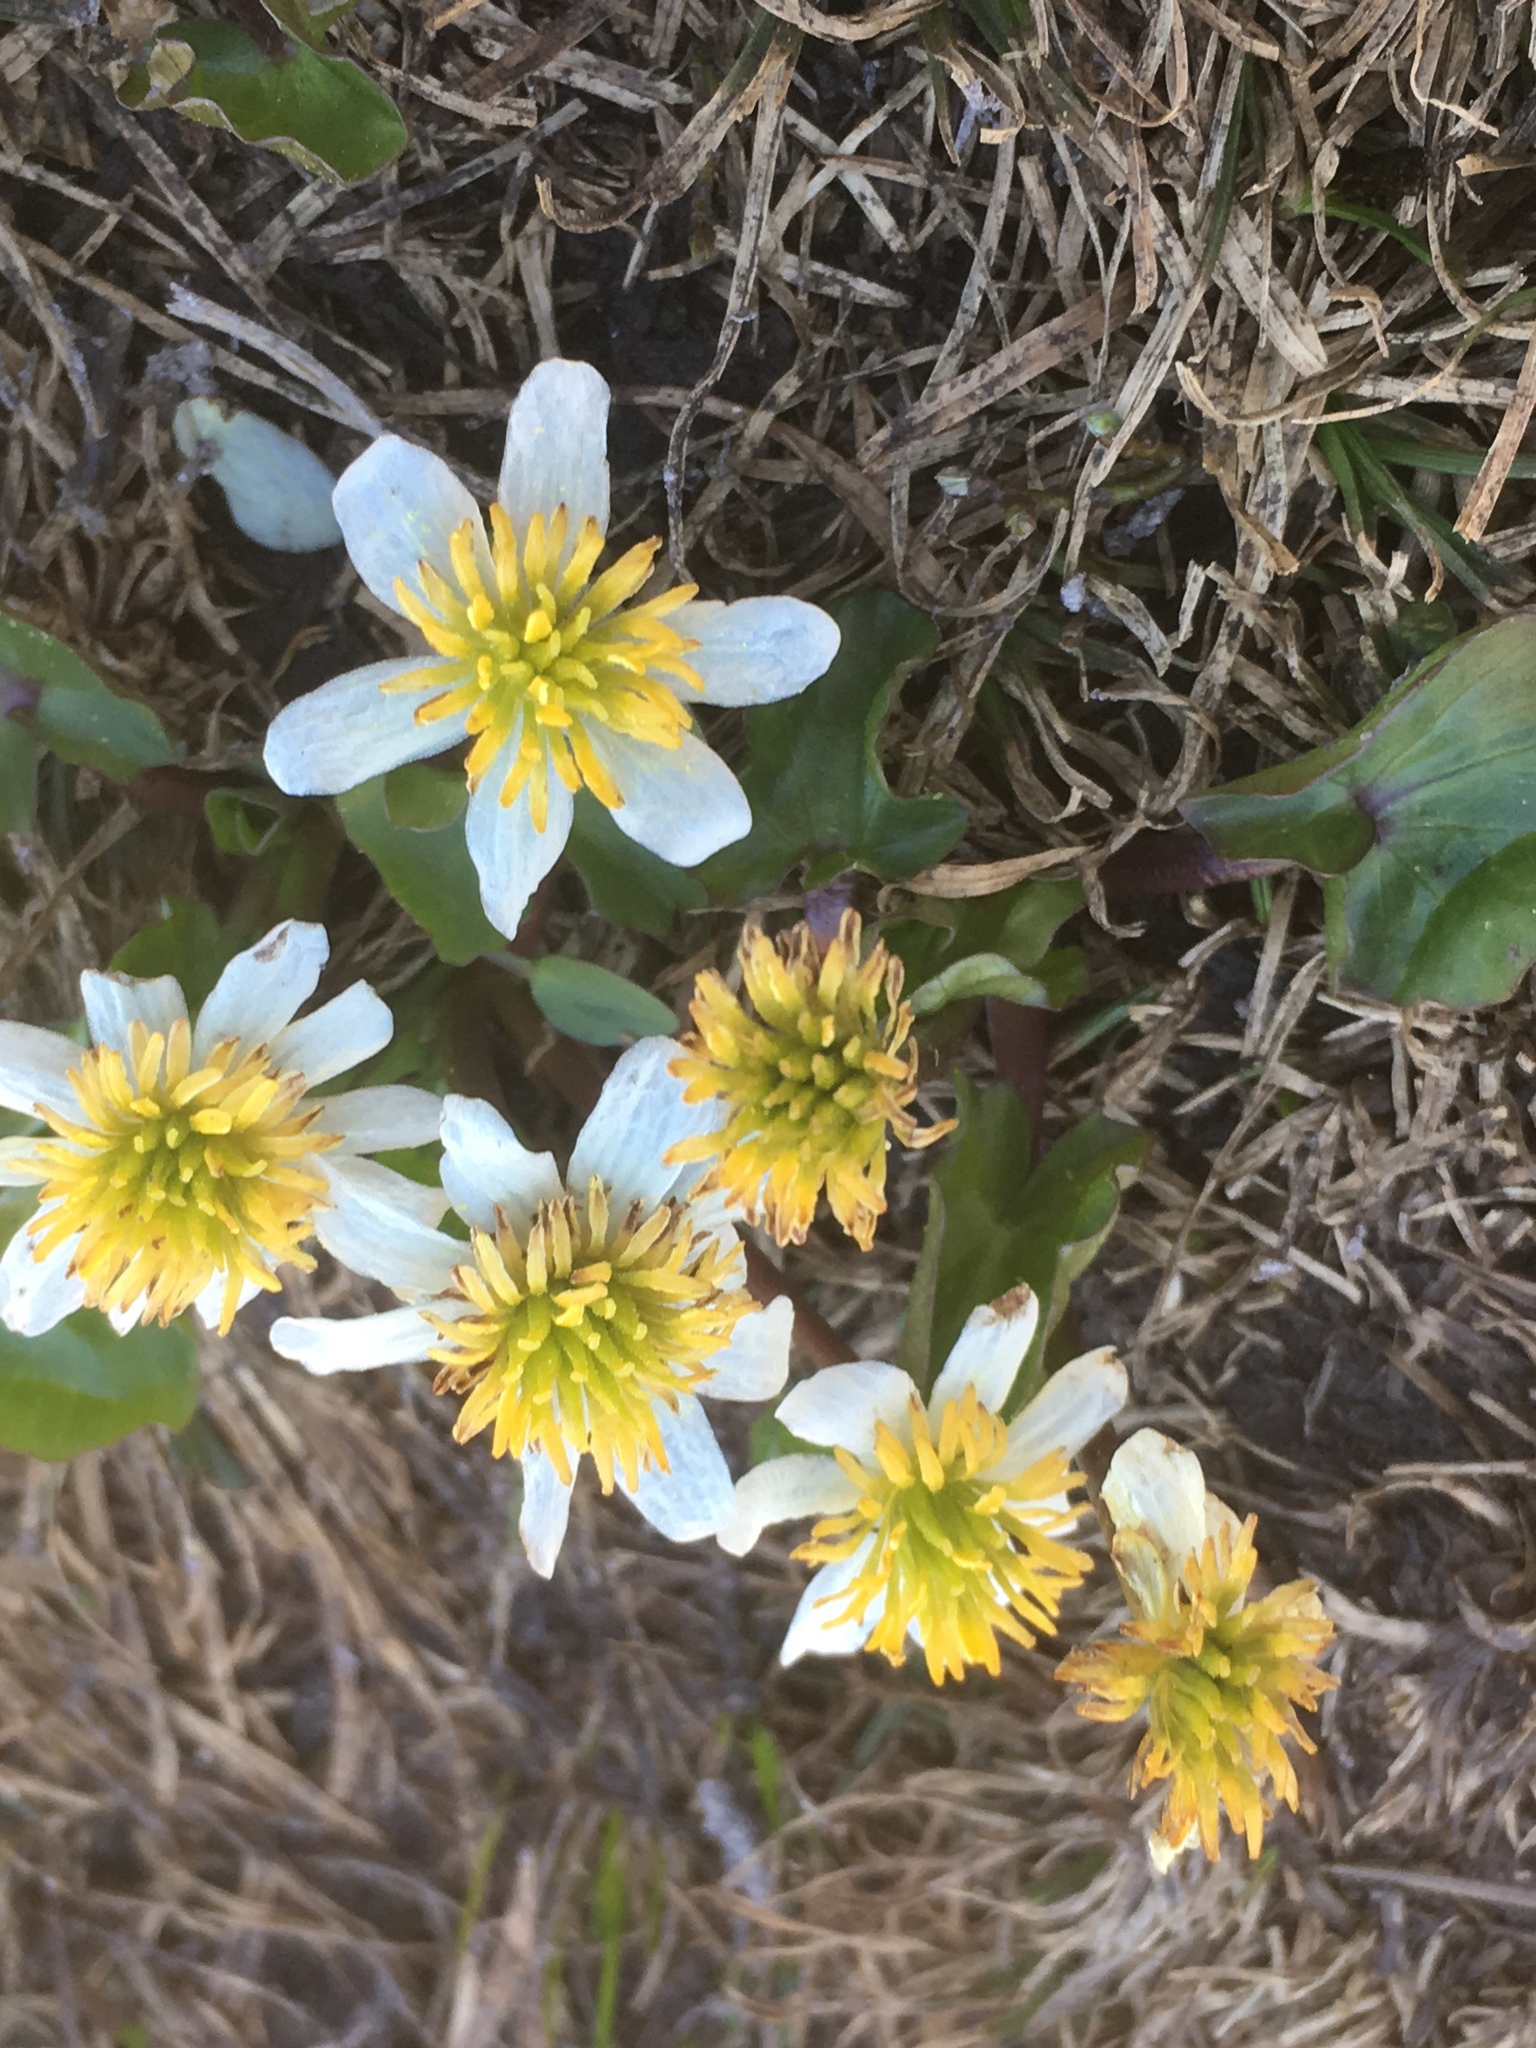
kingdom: Plantae
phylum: Tracheophyta
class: Magnoliopsida
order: Ranunculales
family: Ranunculaceae
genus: Caltha
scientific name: Caltha leptosepala
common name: Elkslip
